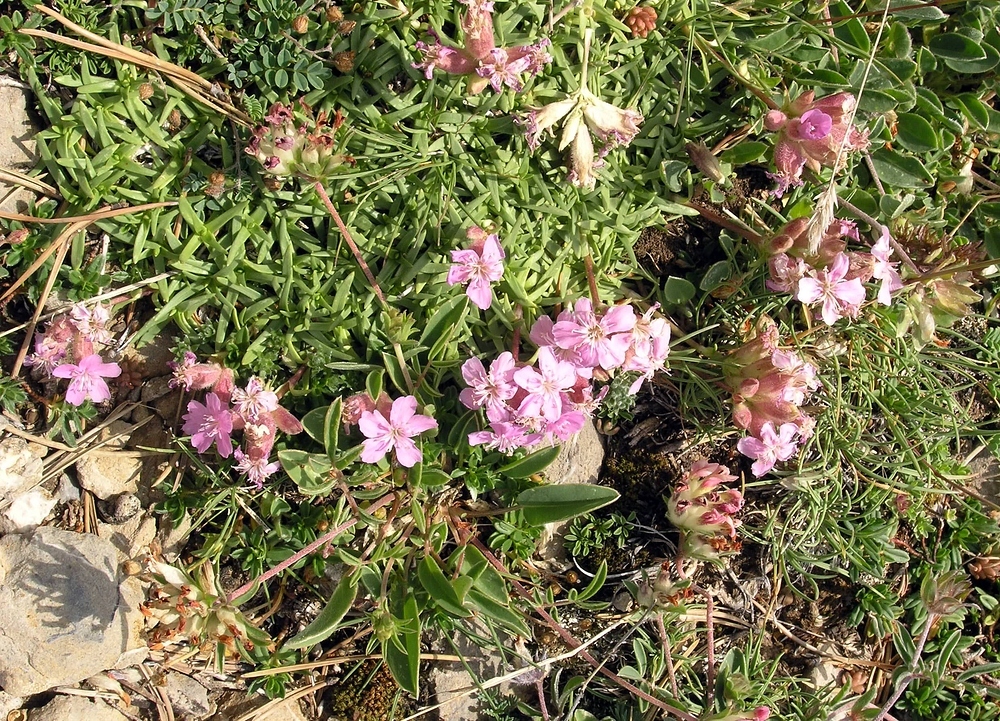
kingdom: Plantae
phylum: Tracheophyta
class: Magnoliopsida
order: Caryophyllales
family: Caryophyllaceae
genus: Saponaria
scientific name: Saponaria caespitosa
